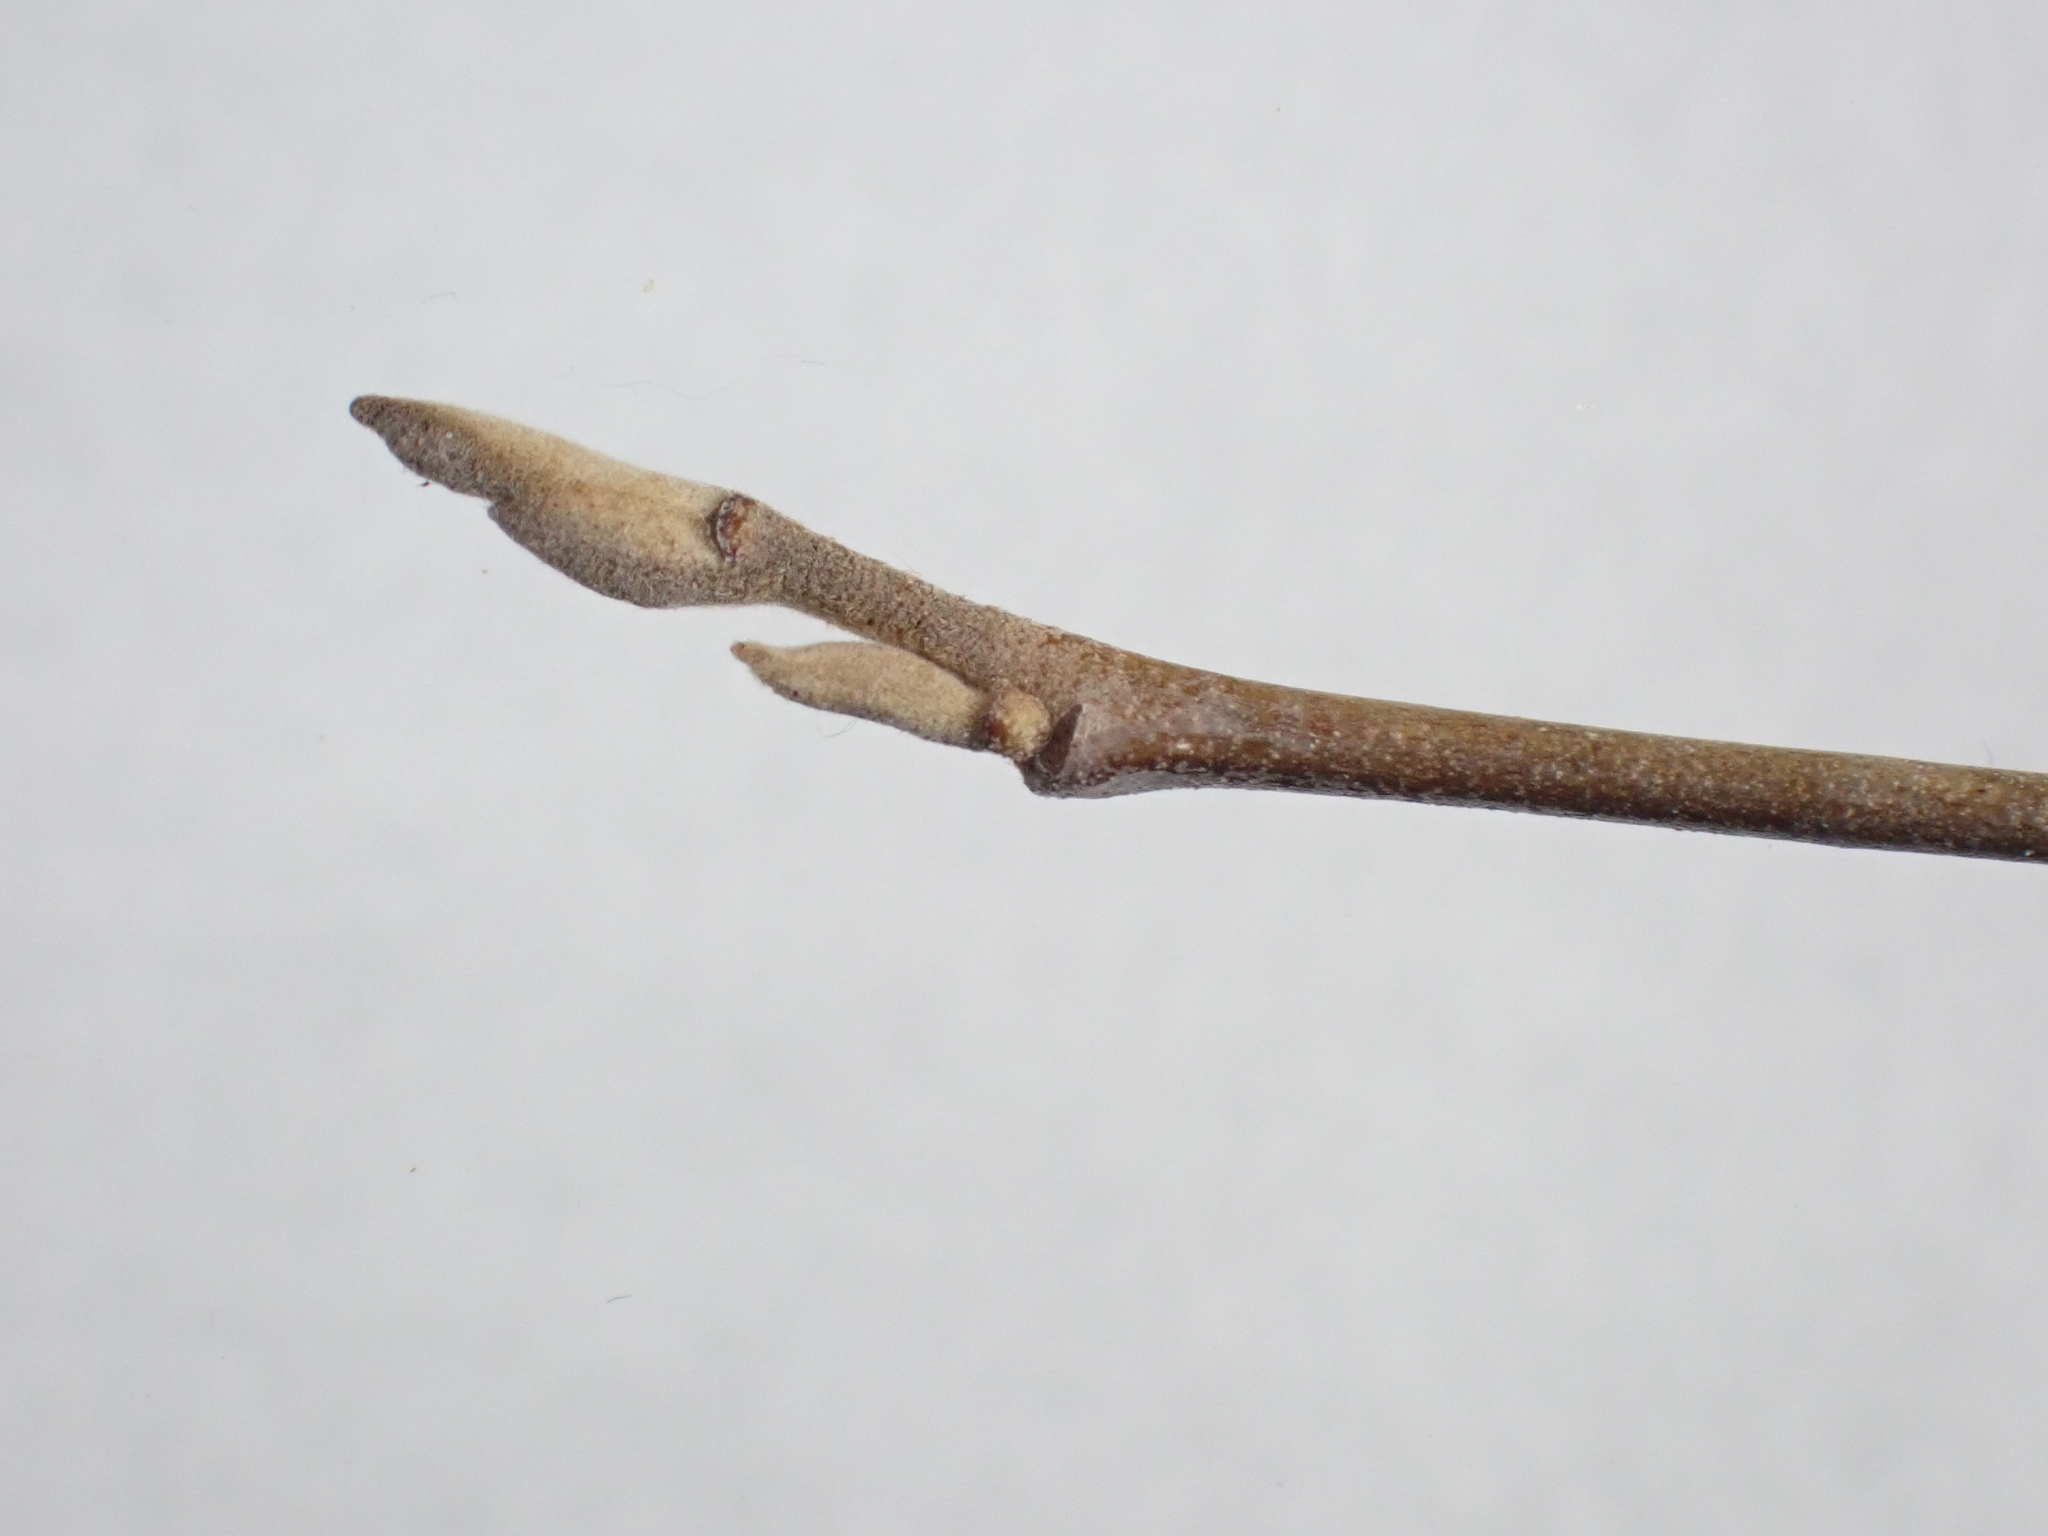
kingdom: Plantae
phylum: Tracheophyta
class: Magnoliopsida
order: Saxifragales
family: Hamamelidaceae
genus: Hamamelis
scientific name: Hamamelis virginiana
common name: Witch-hazel
